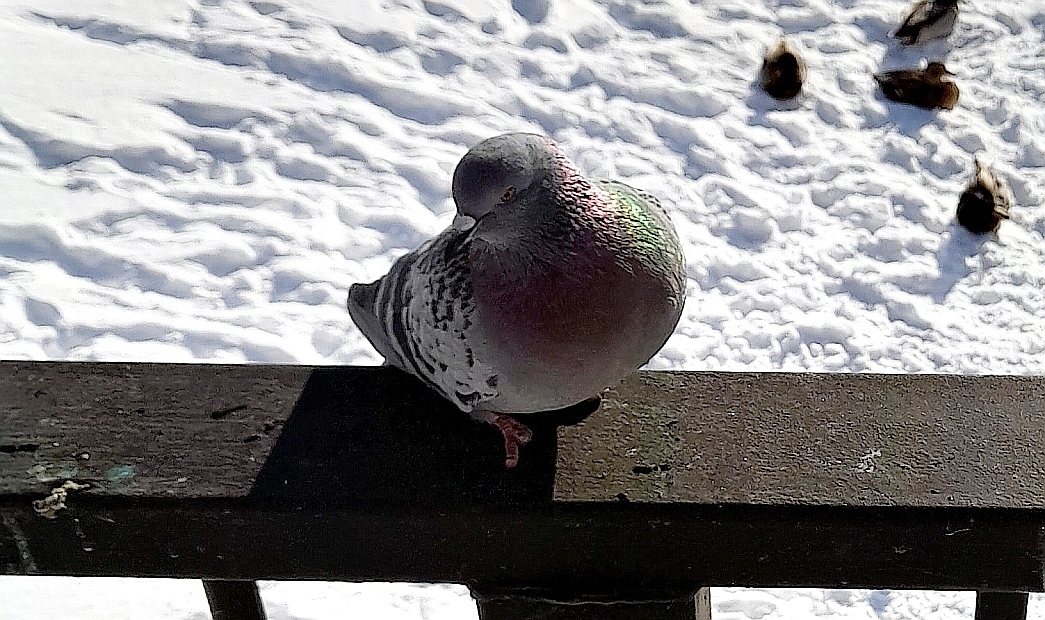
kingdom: Animalia
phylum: Chordata
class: Aves
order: Columbiformes
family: Columbidae
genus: Columba
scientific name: Columba livia
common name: Rock pigeon
